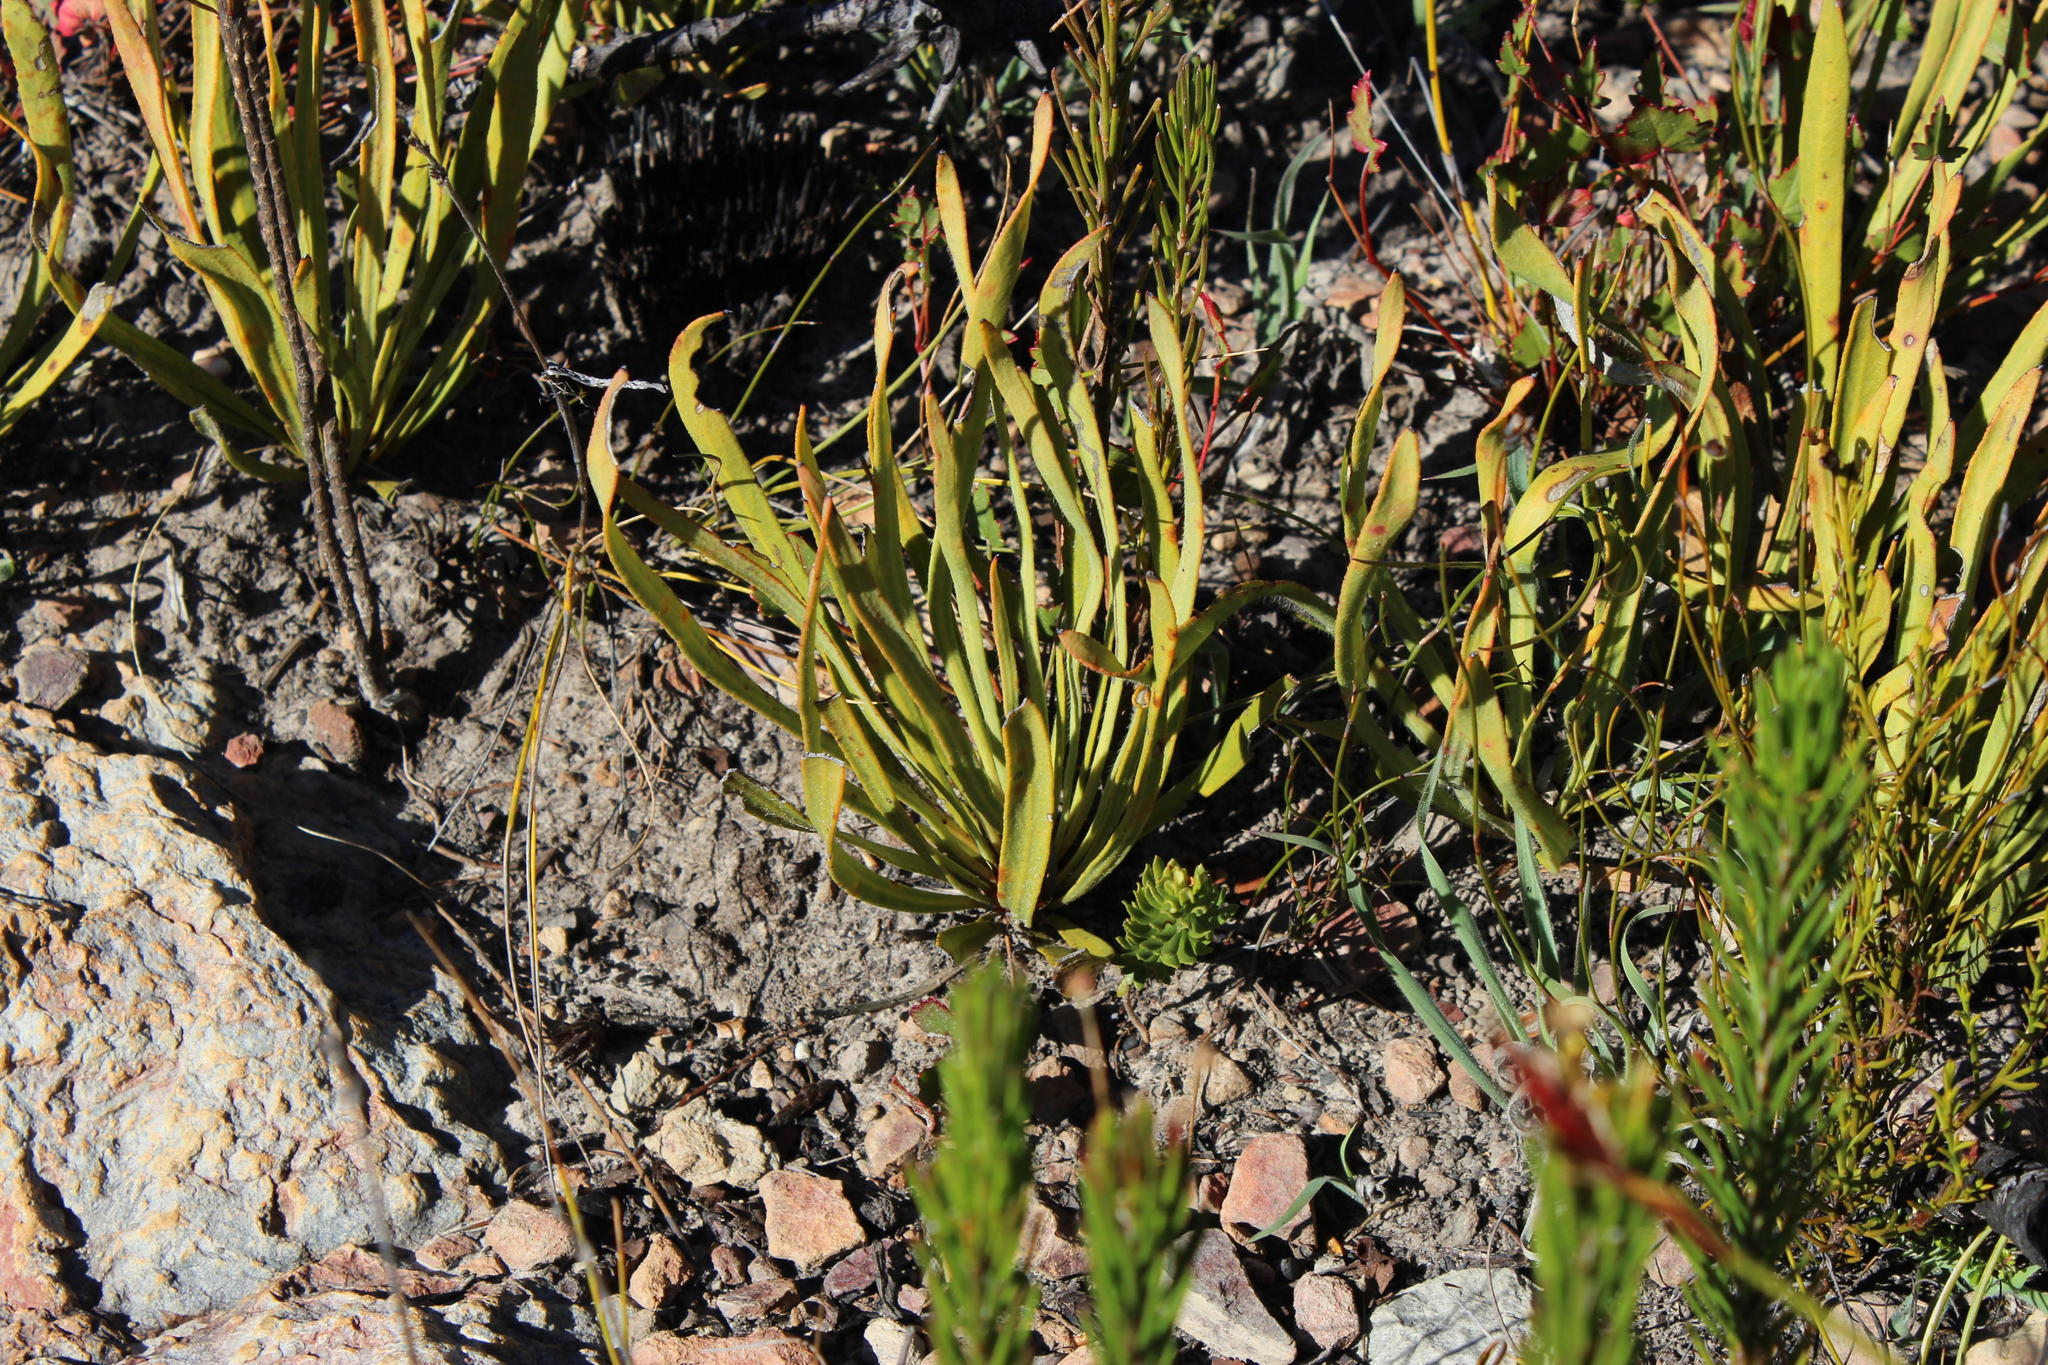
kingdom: Plantae
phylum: Tracheophyta
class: Magnoliopsida
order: Proteales
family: Proteaceae
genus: Protea
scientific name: Protea scabra
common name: Sandpaper-leaf sugarbush
